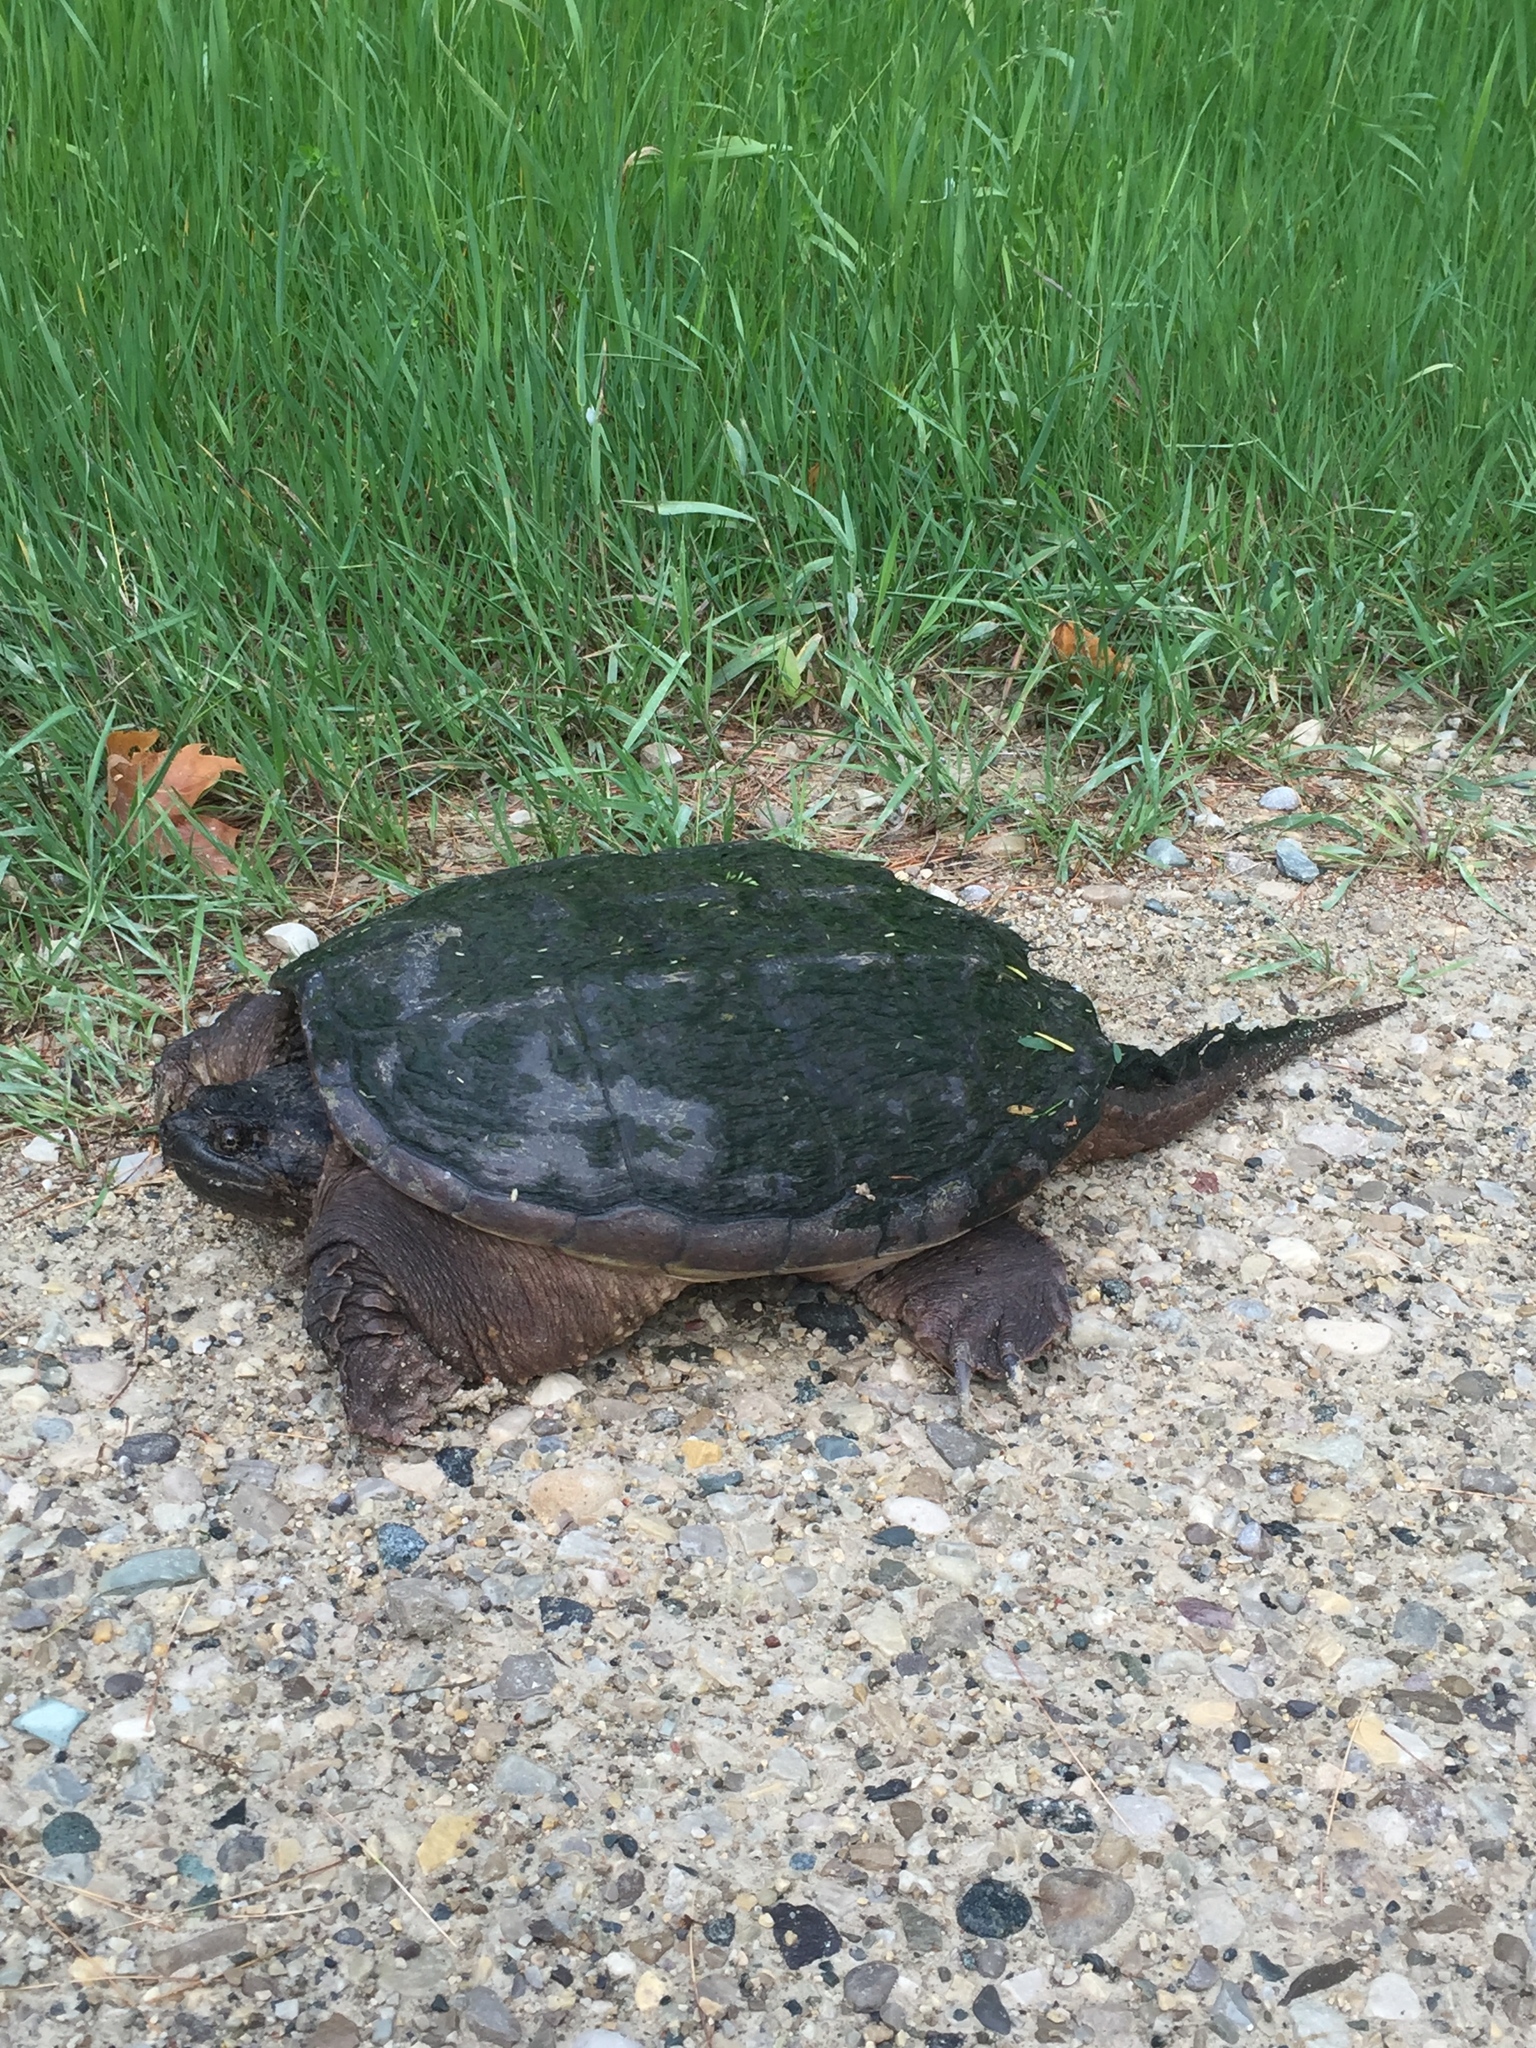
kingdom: Animalia
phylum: Chordata
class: Testudines
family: Chelydridae
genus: Chelydra
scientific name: Chelydra serpentina
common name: Common snapping turtle
